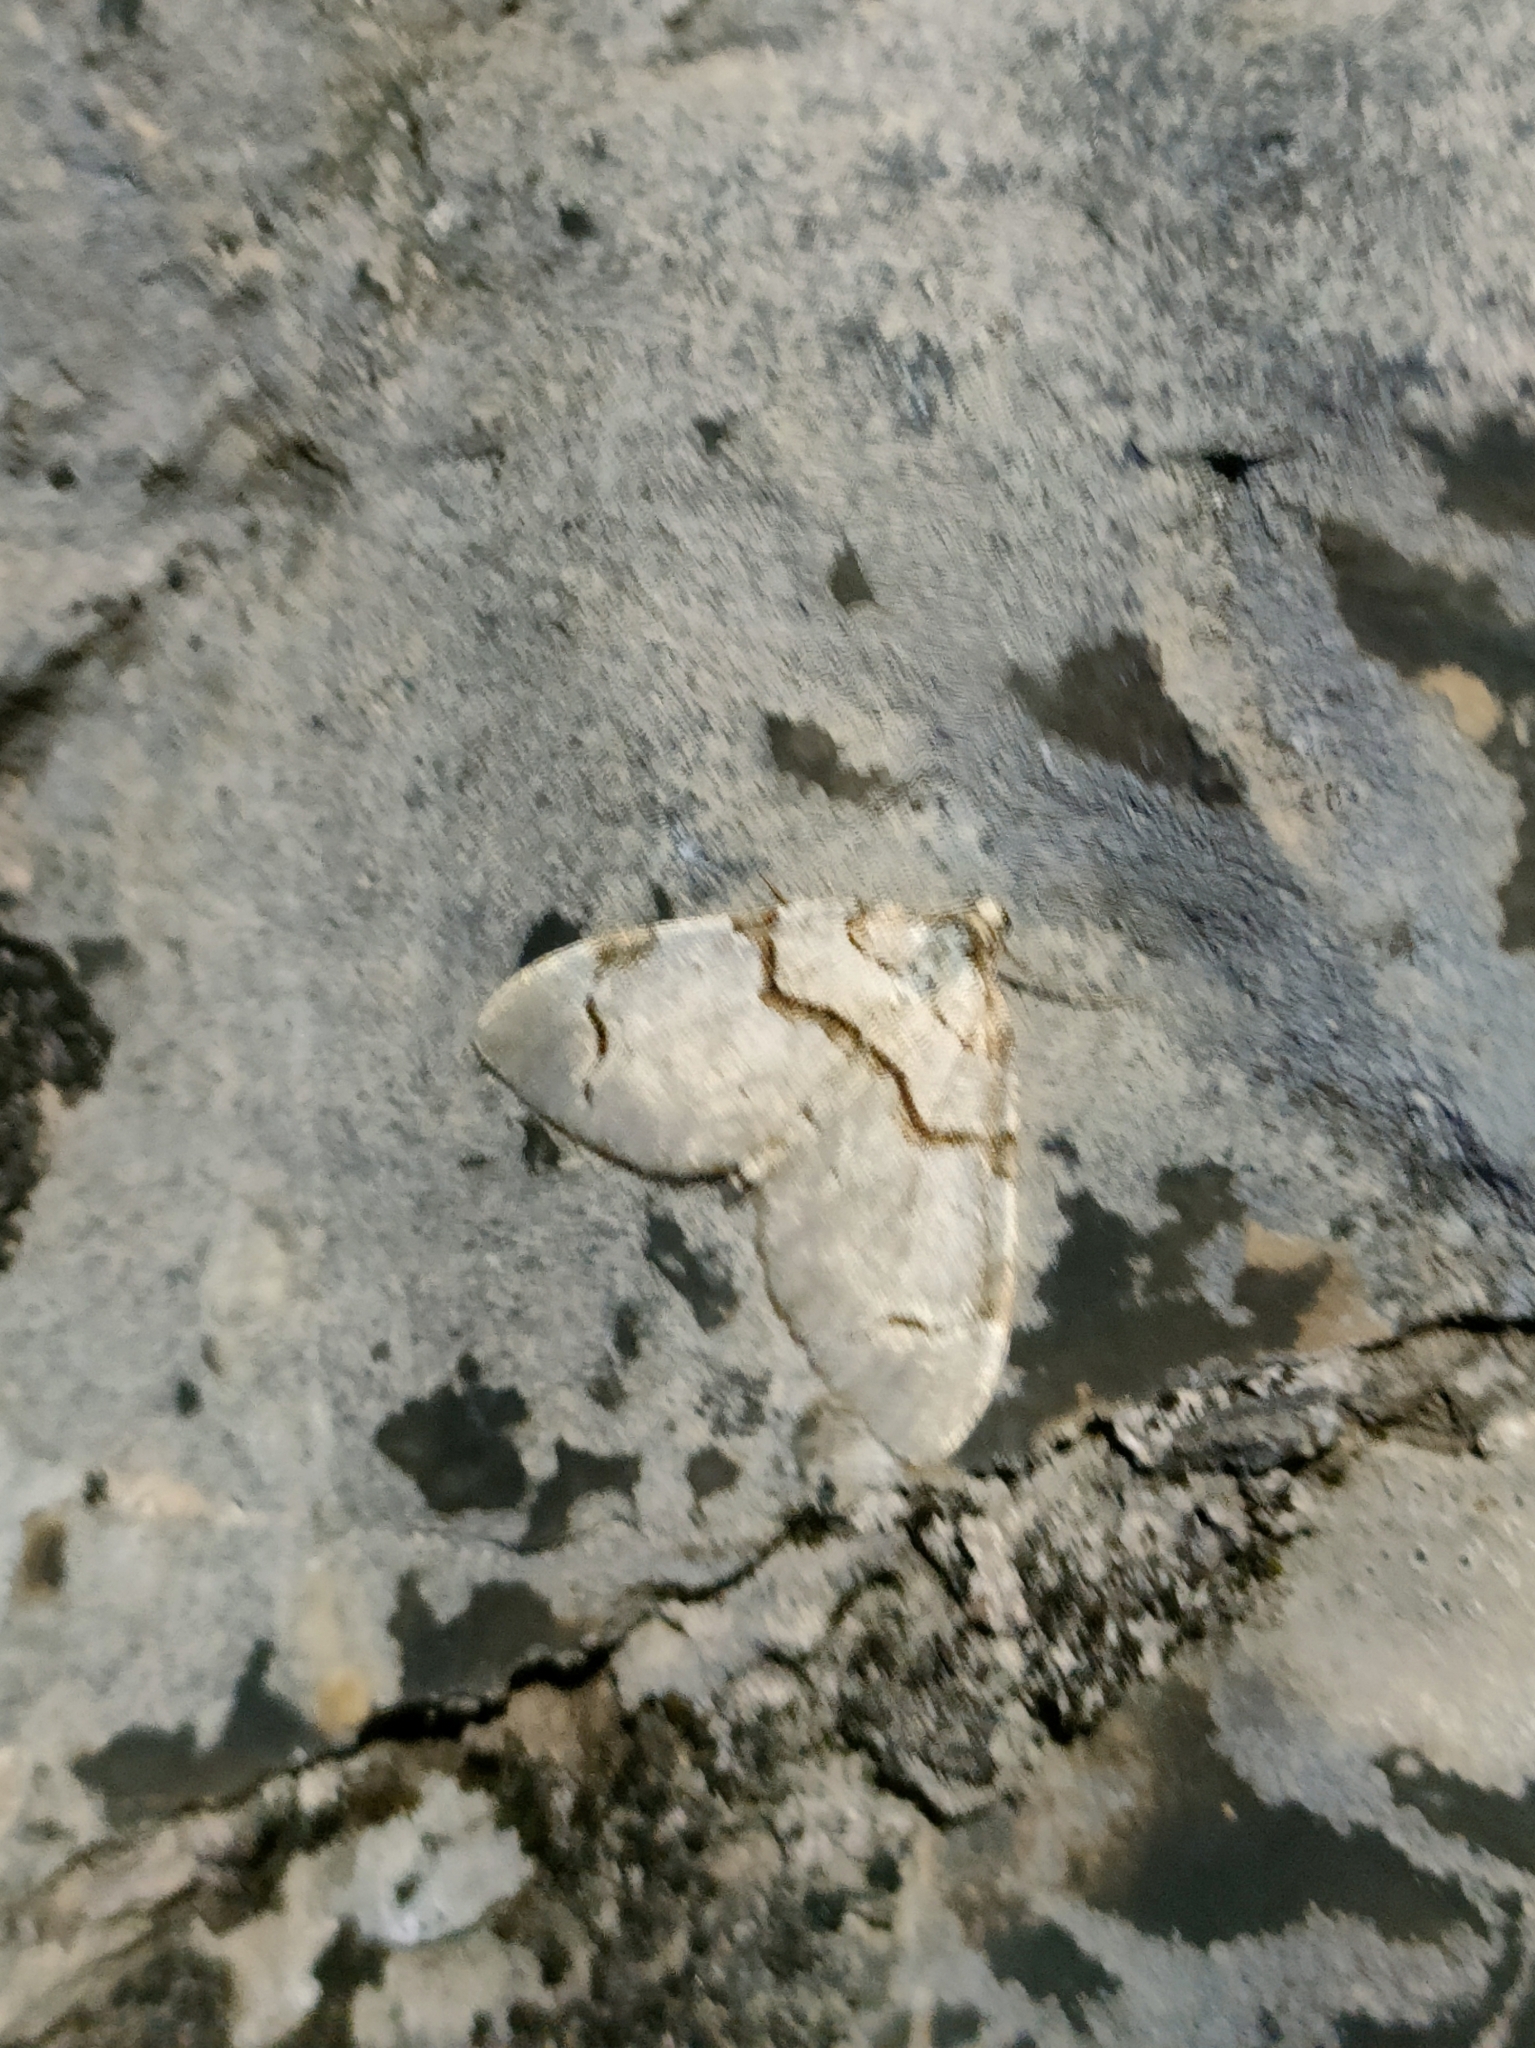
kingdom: Animalia
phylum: Arthropoda
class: Insecta
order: Lepidoptera
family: Geometridae
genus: Anticlea
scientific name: Anticlea derivata
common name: Streamer
